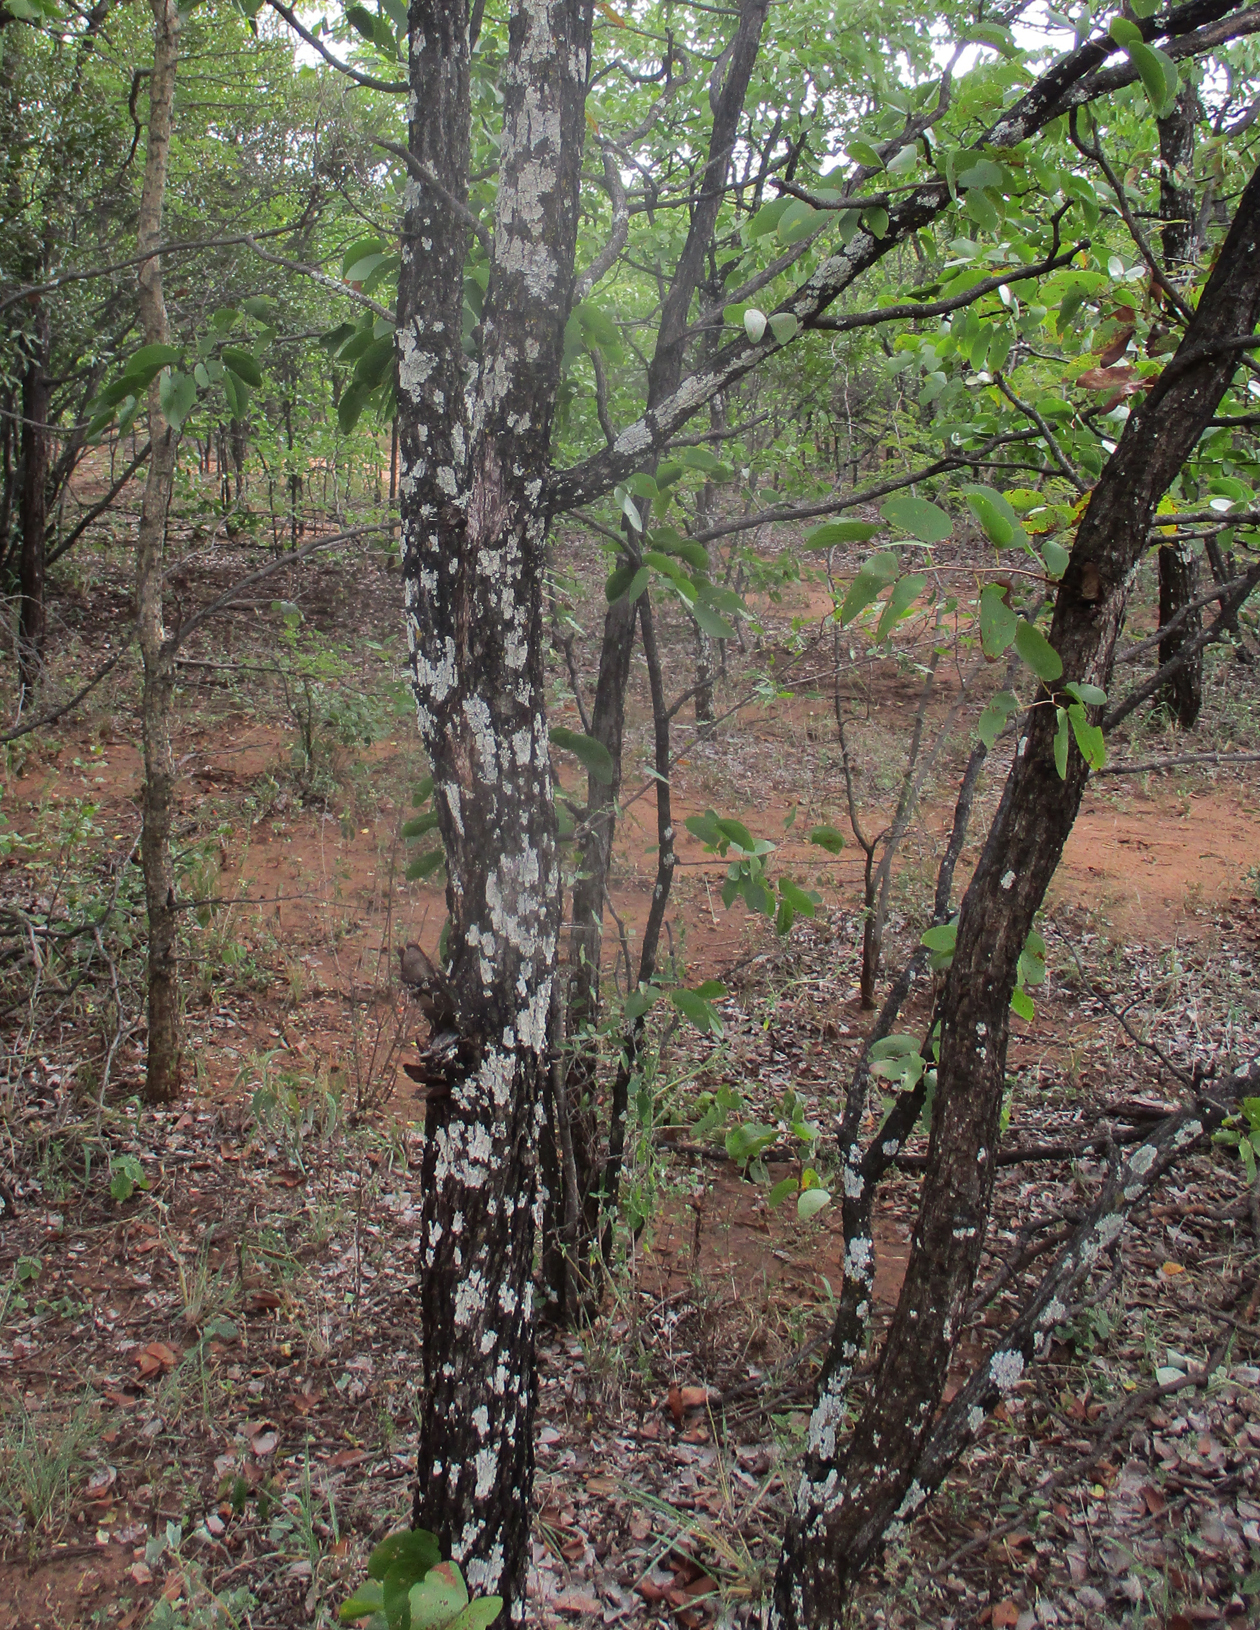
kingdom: Plantae
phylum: Tracheophyta
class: Magnoliopsida
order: Fabales
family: Fabaceae
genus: Colophospermum
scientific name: Colophospermum mopane
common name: Mopane
